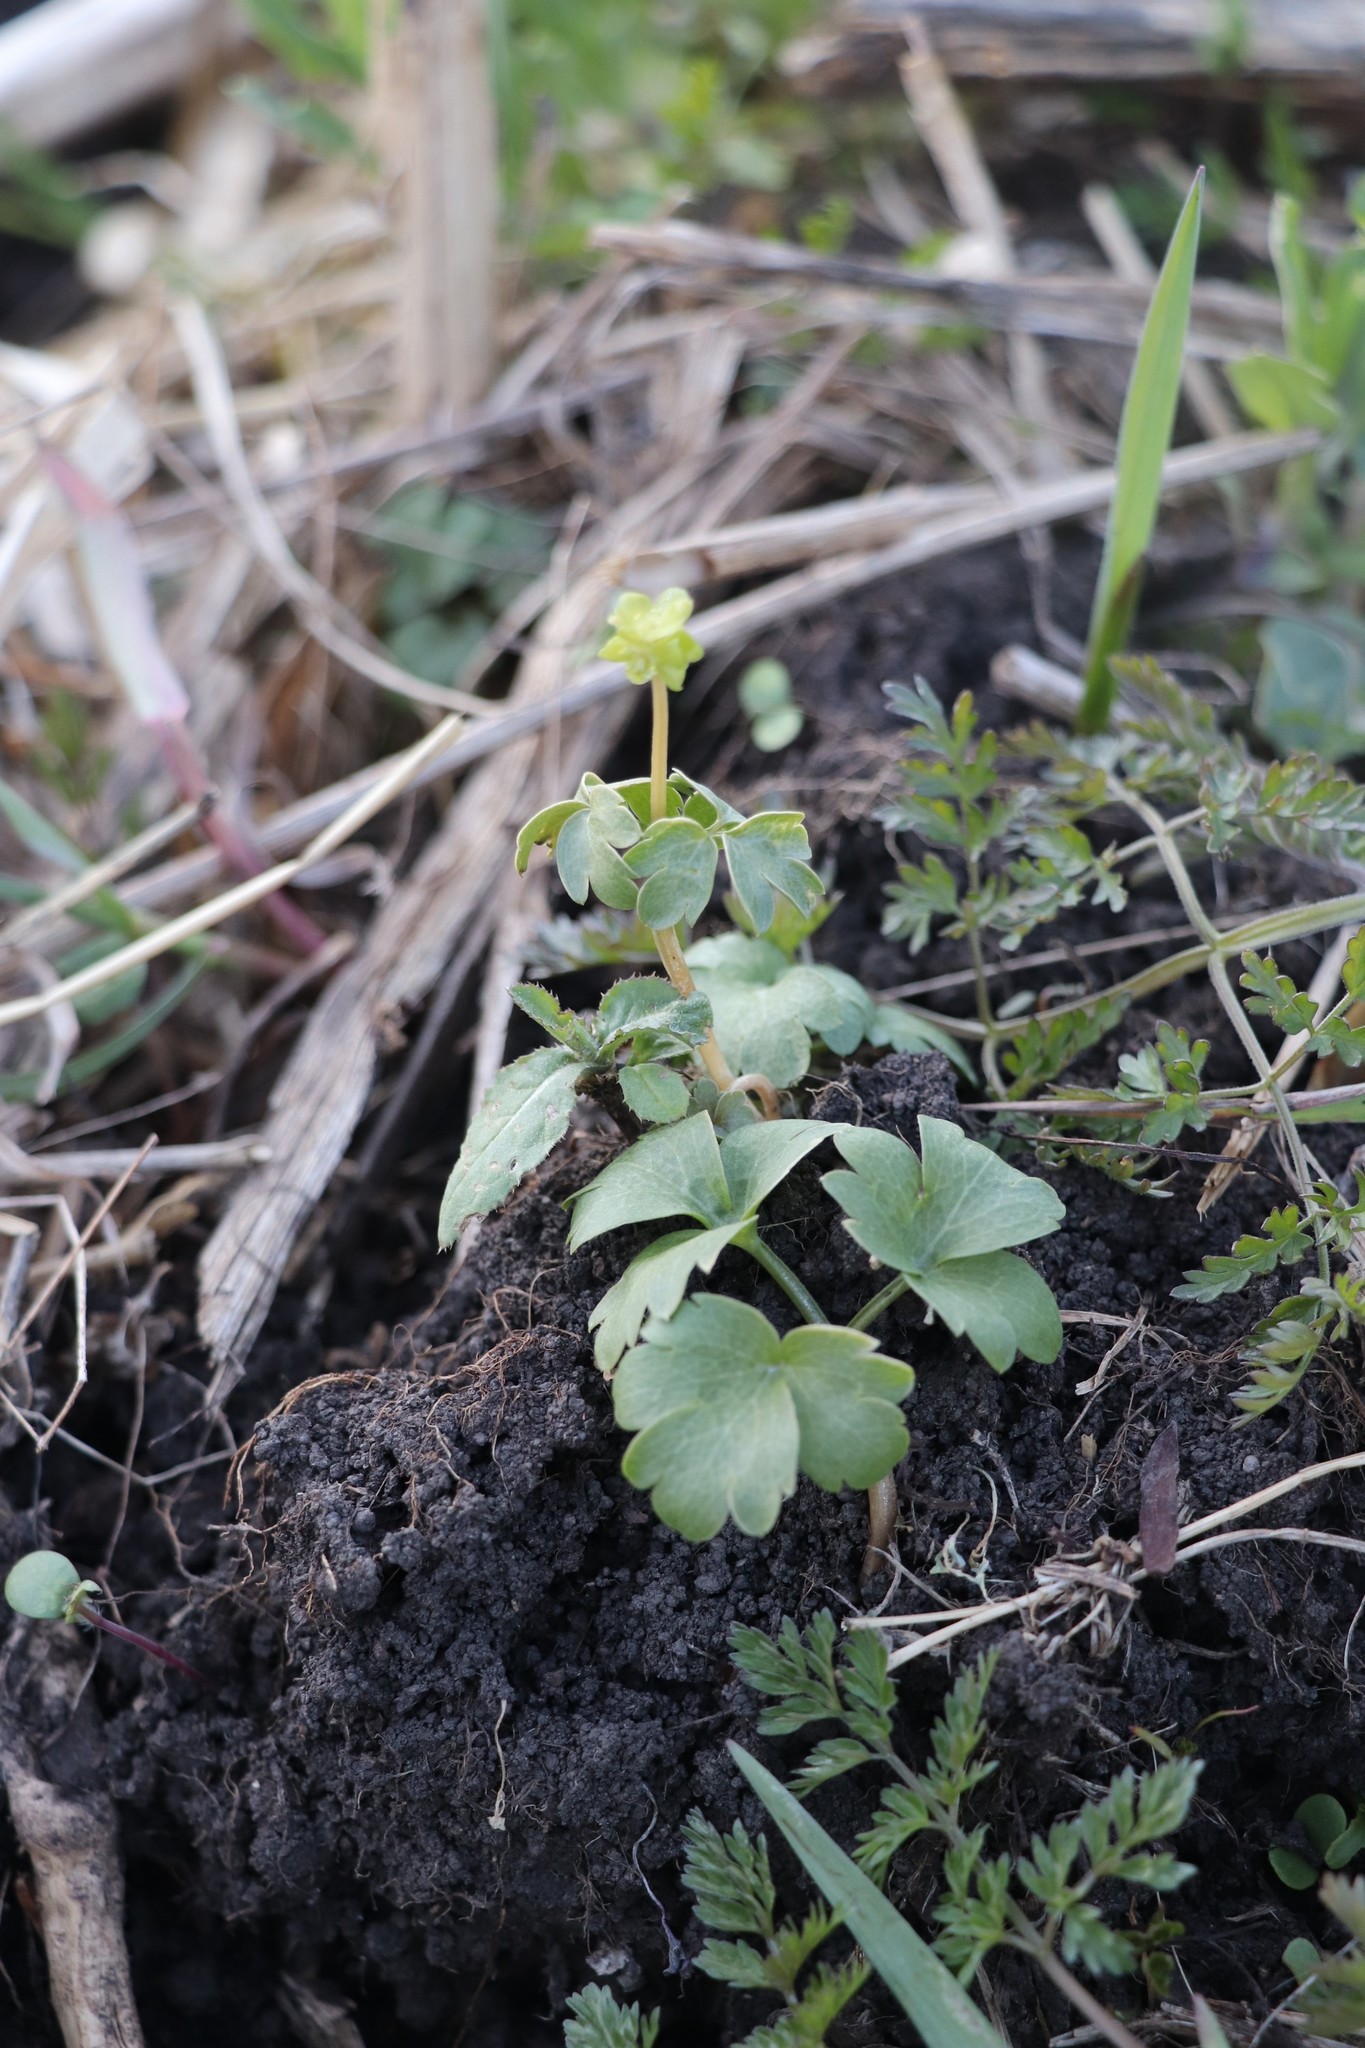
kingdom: Plantae
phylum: Tracheophyta
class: Magnoliopsida
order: Dipsacales
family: Viburnaceae
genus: Adoxa
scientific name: Adoxa moschatellina
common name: Moschatel
